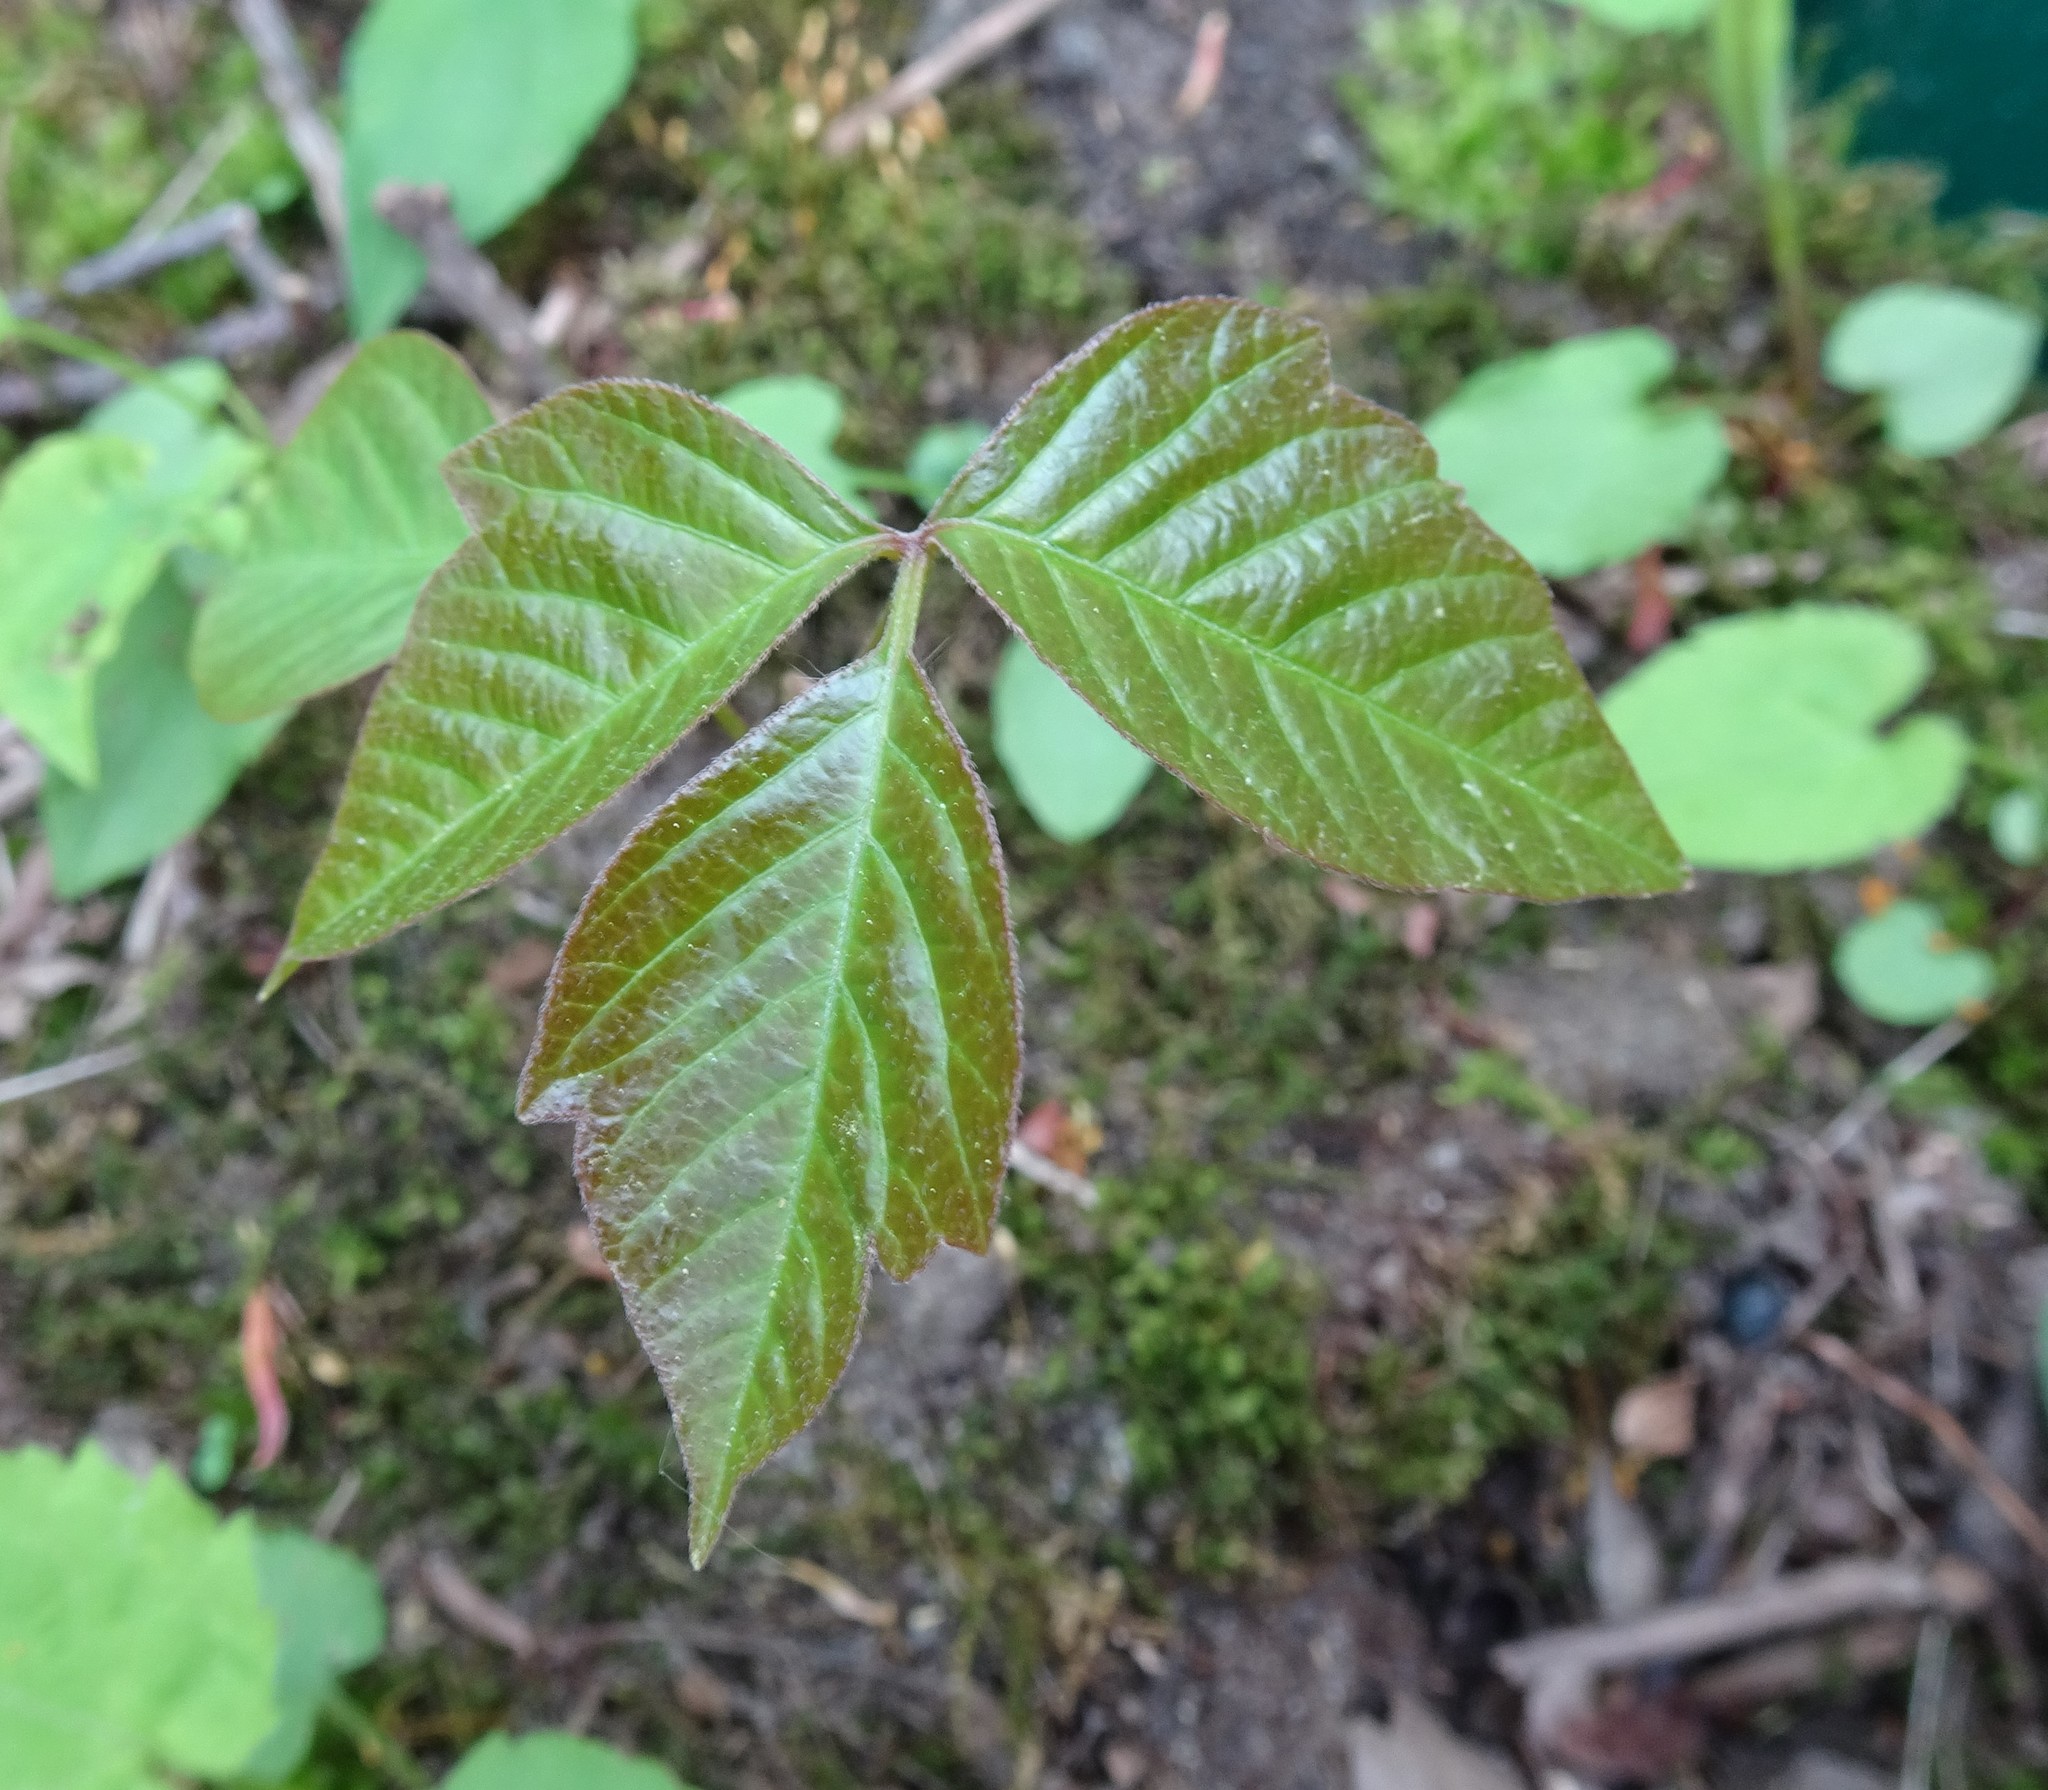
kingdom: Plantae
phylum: Tracheophyta
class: Magnoliopsida
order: Sapindales
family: Anacardiaceae
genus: Toxicodendron
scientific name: Toxicodendron radicans
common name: Poison ivy
